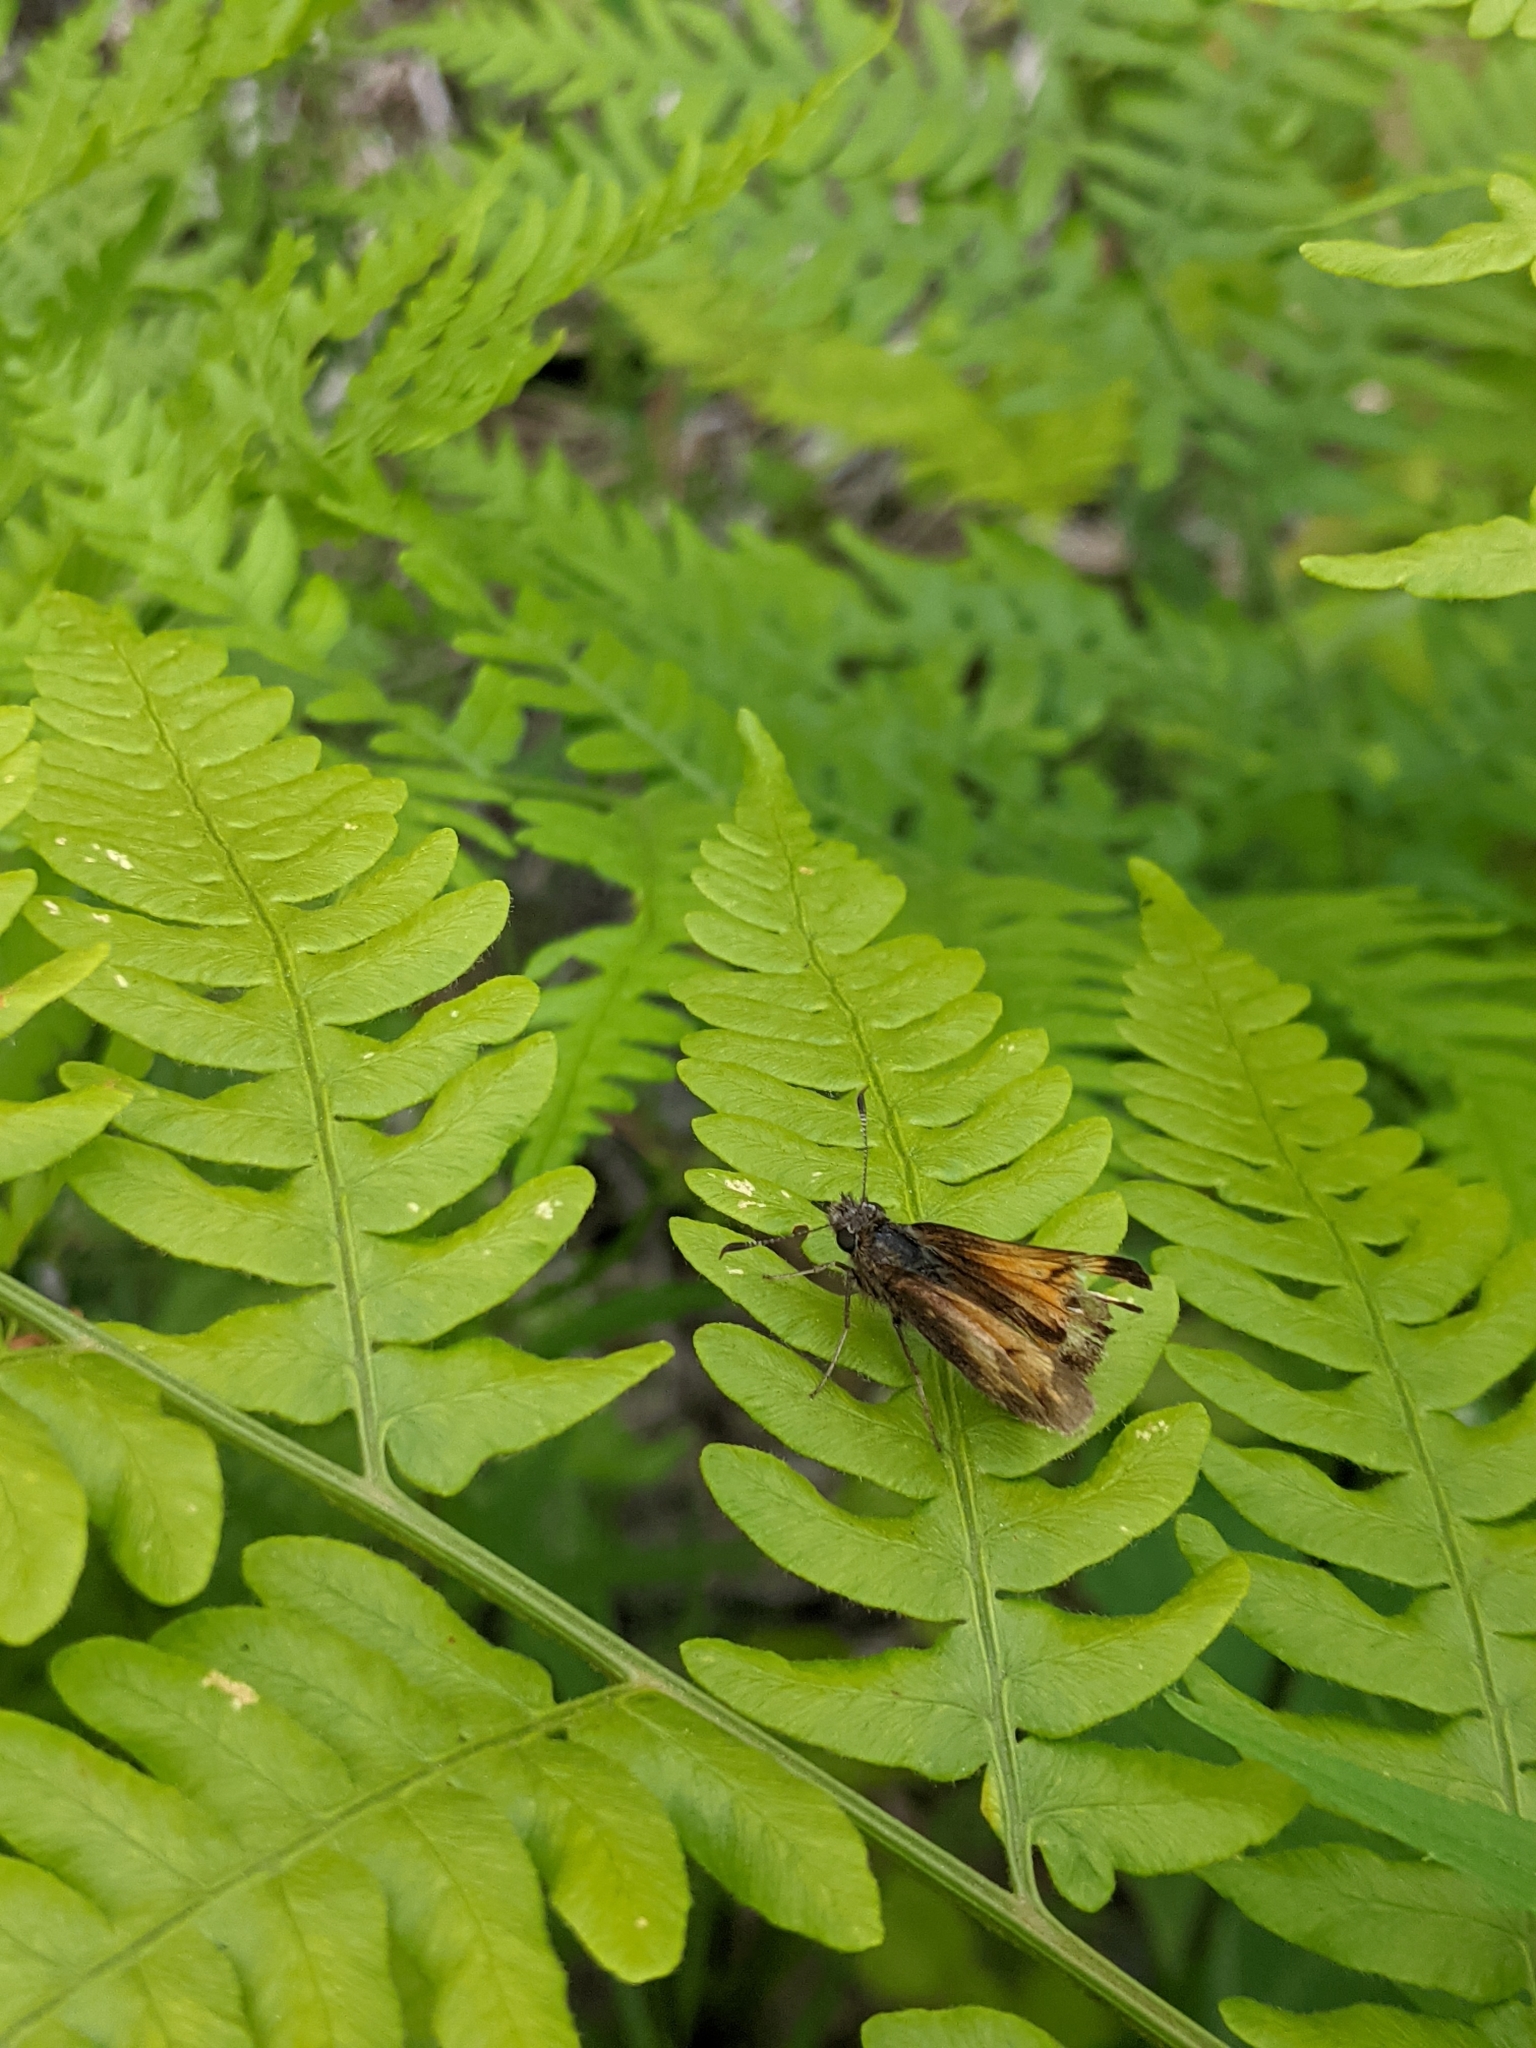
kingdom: Animalia
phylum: Arthropoda
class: Insecta
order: Lepidoptera
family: Hesperiidae
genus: Lon
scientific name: Lon hobomok
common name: Hobomok skipper
